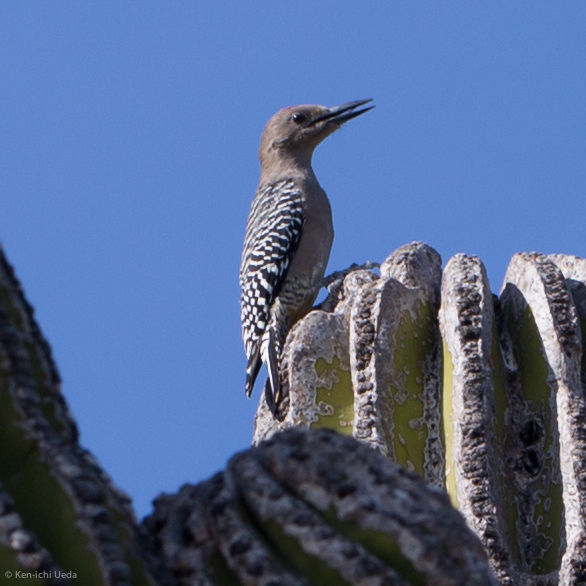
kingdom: Animalia
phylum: Chordata
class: Aves
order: Piciformes
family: Picidae
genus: Melanerpes
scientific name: Melanerpes uropygialis
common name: Gila woodpecker
